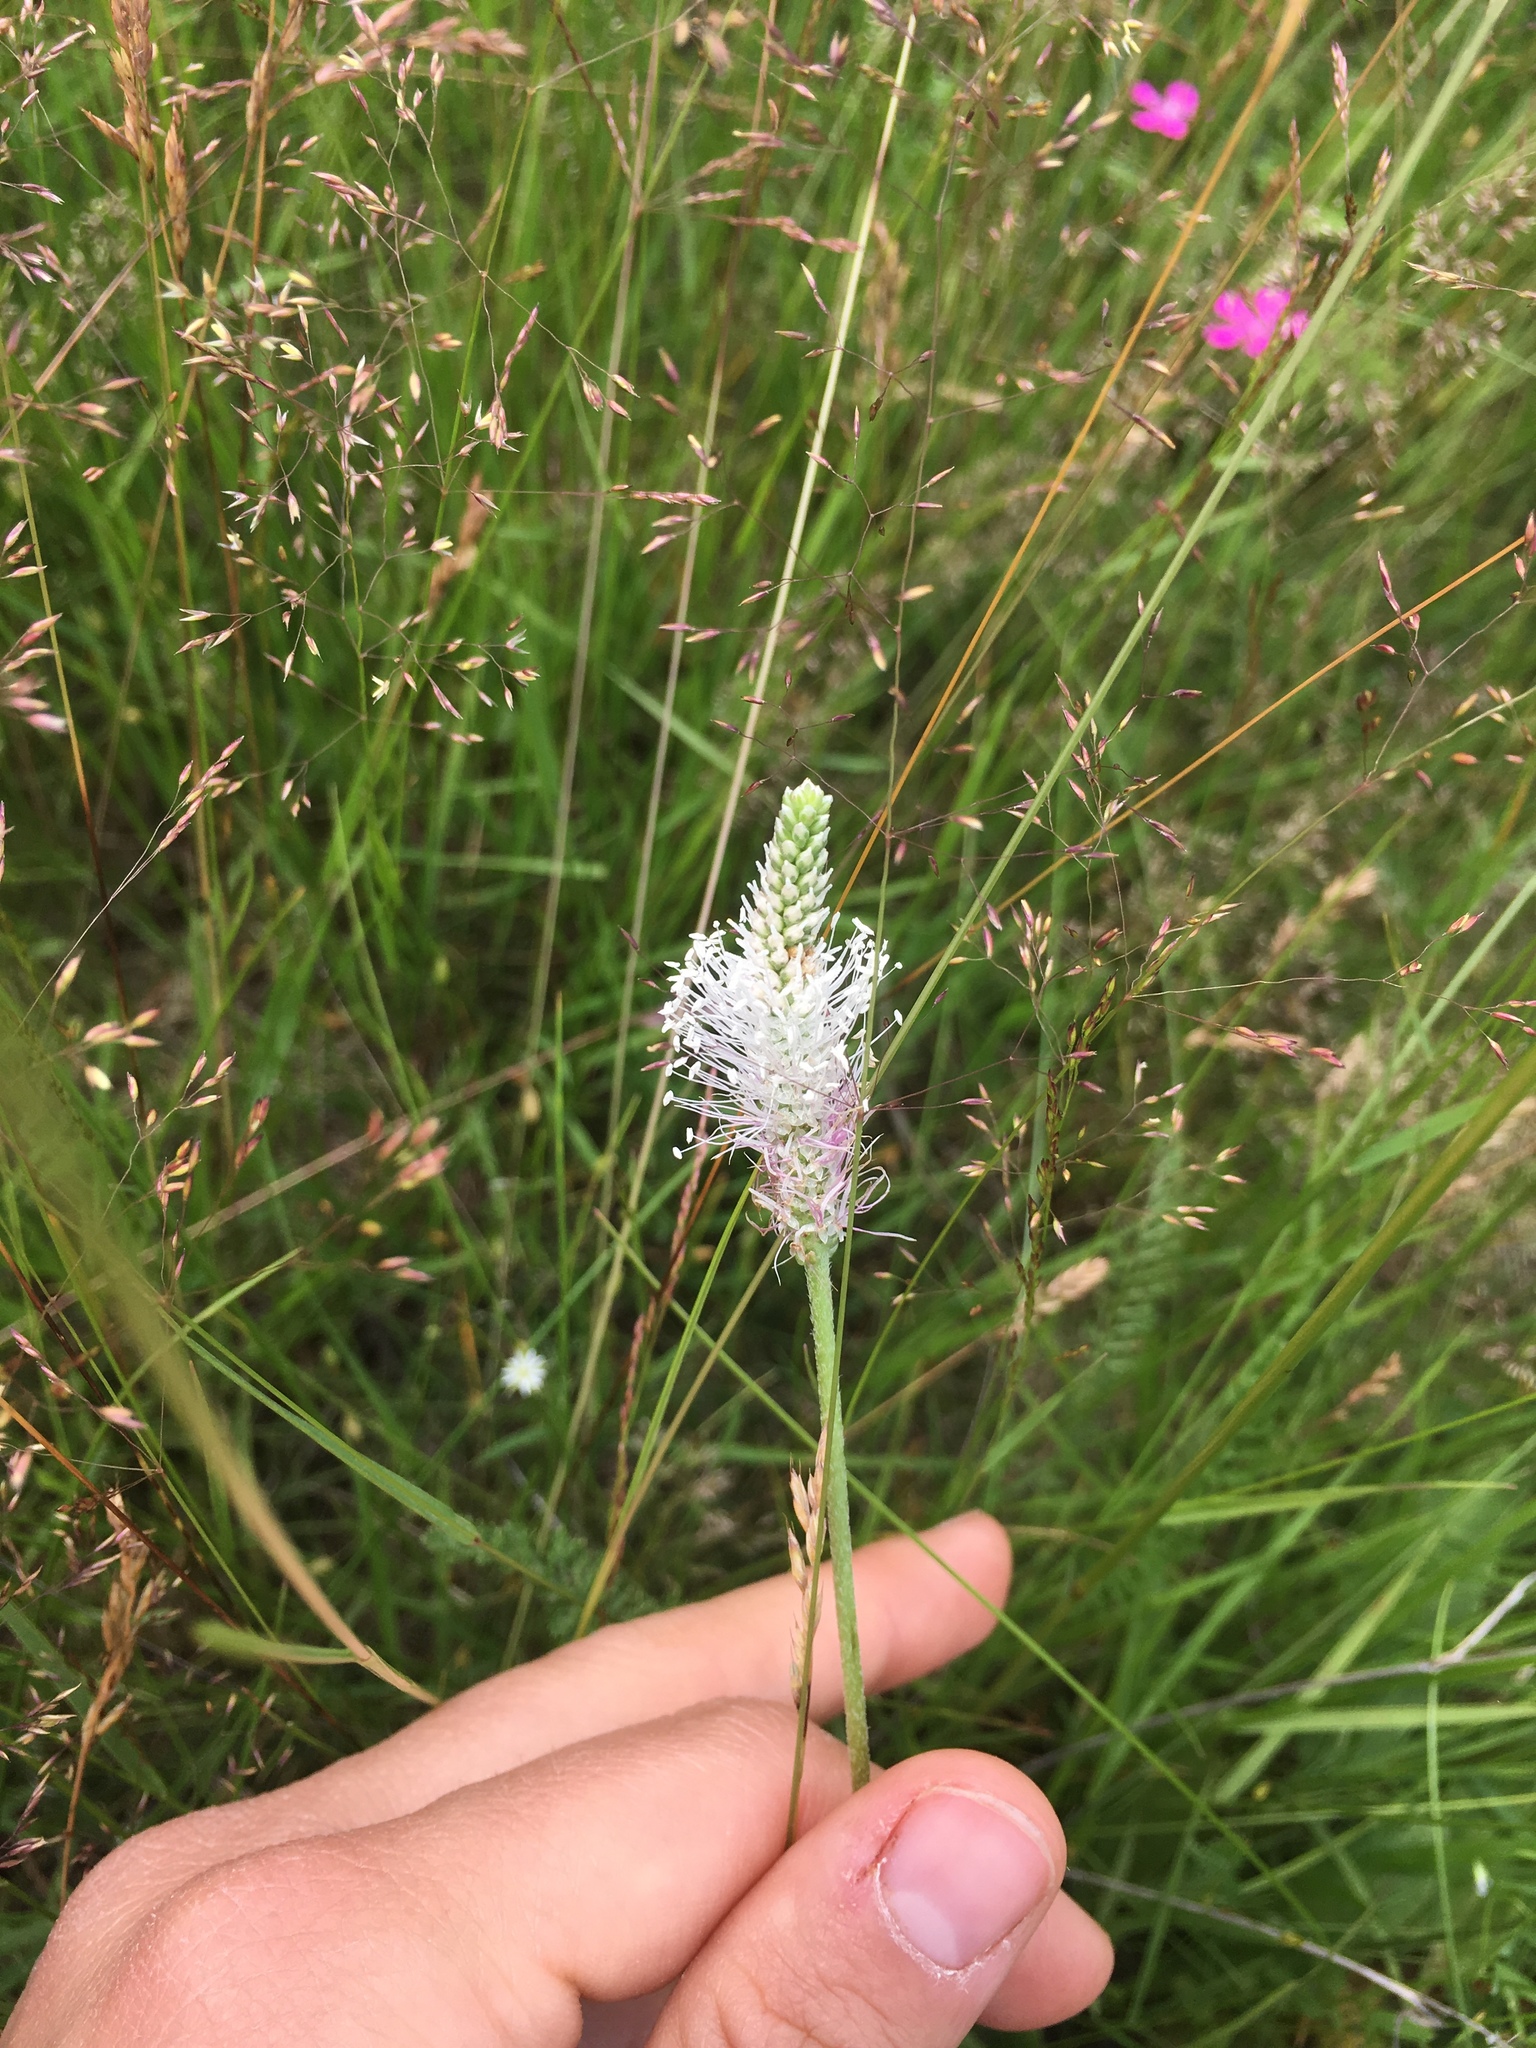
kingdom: Plantae
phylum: Tracheophyta
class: Magnoliopsida
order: Lamiales
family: Plantaginaceae
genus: Plantago
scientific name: Plantago media
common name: Hoary plantain
